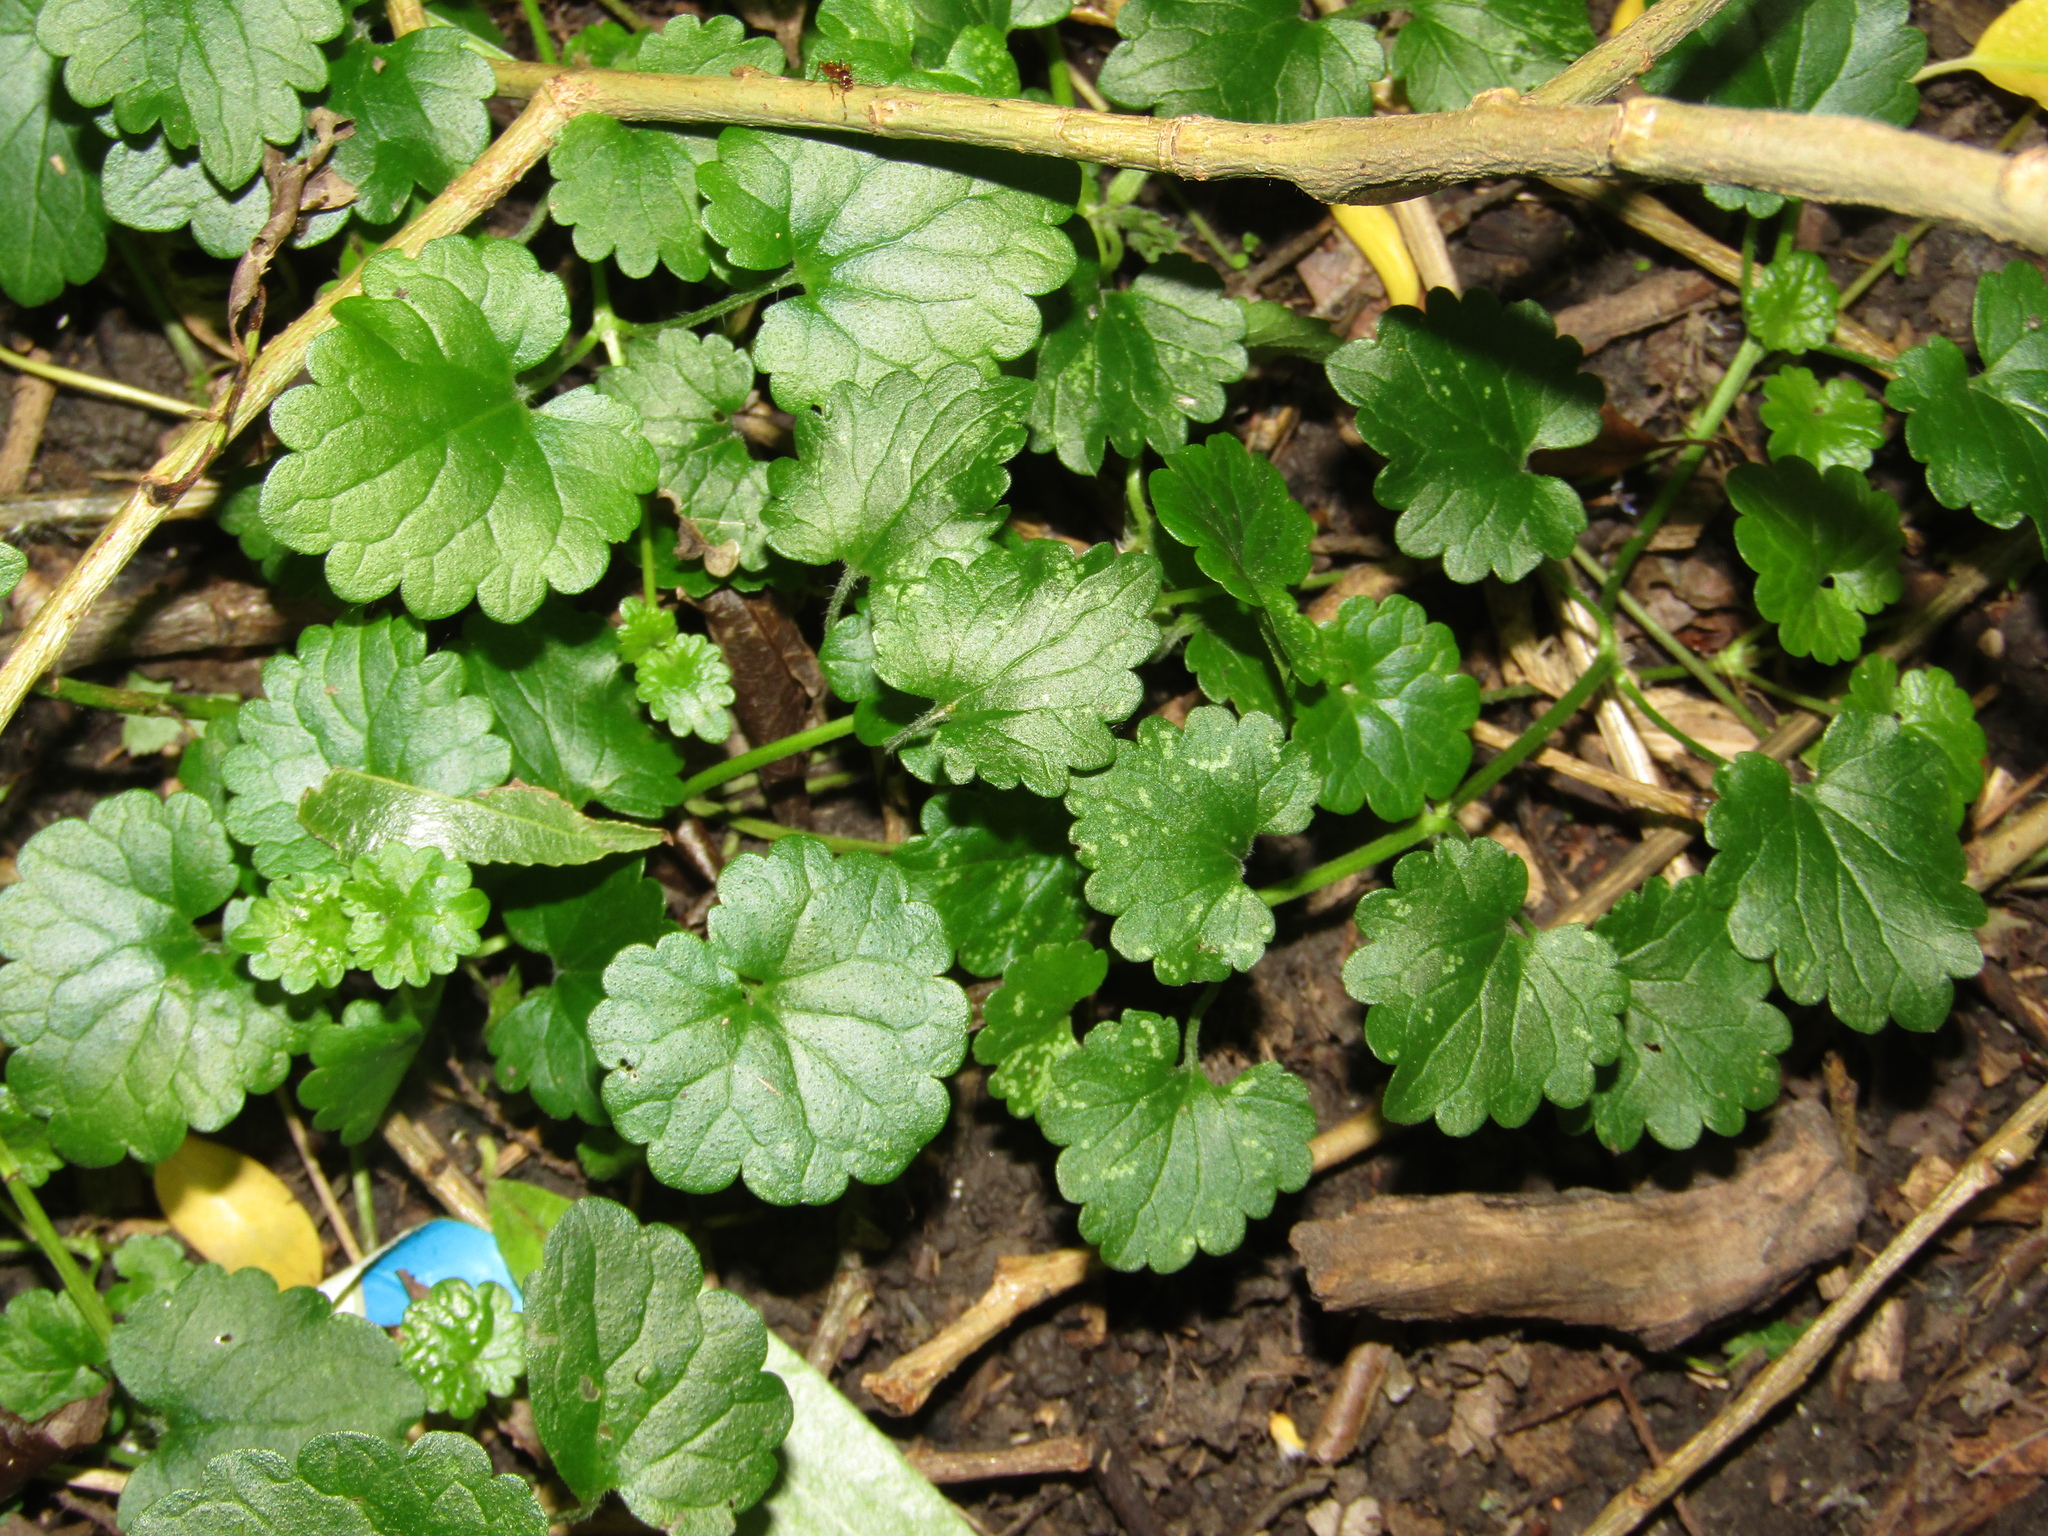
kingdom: Plantae
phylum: Tracheophyta
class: Magnoliopsida
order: Lamiales
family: Lamiaceae
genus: Glechoma
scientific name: Glechoma hederacea
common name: Ground ivy
